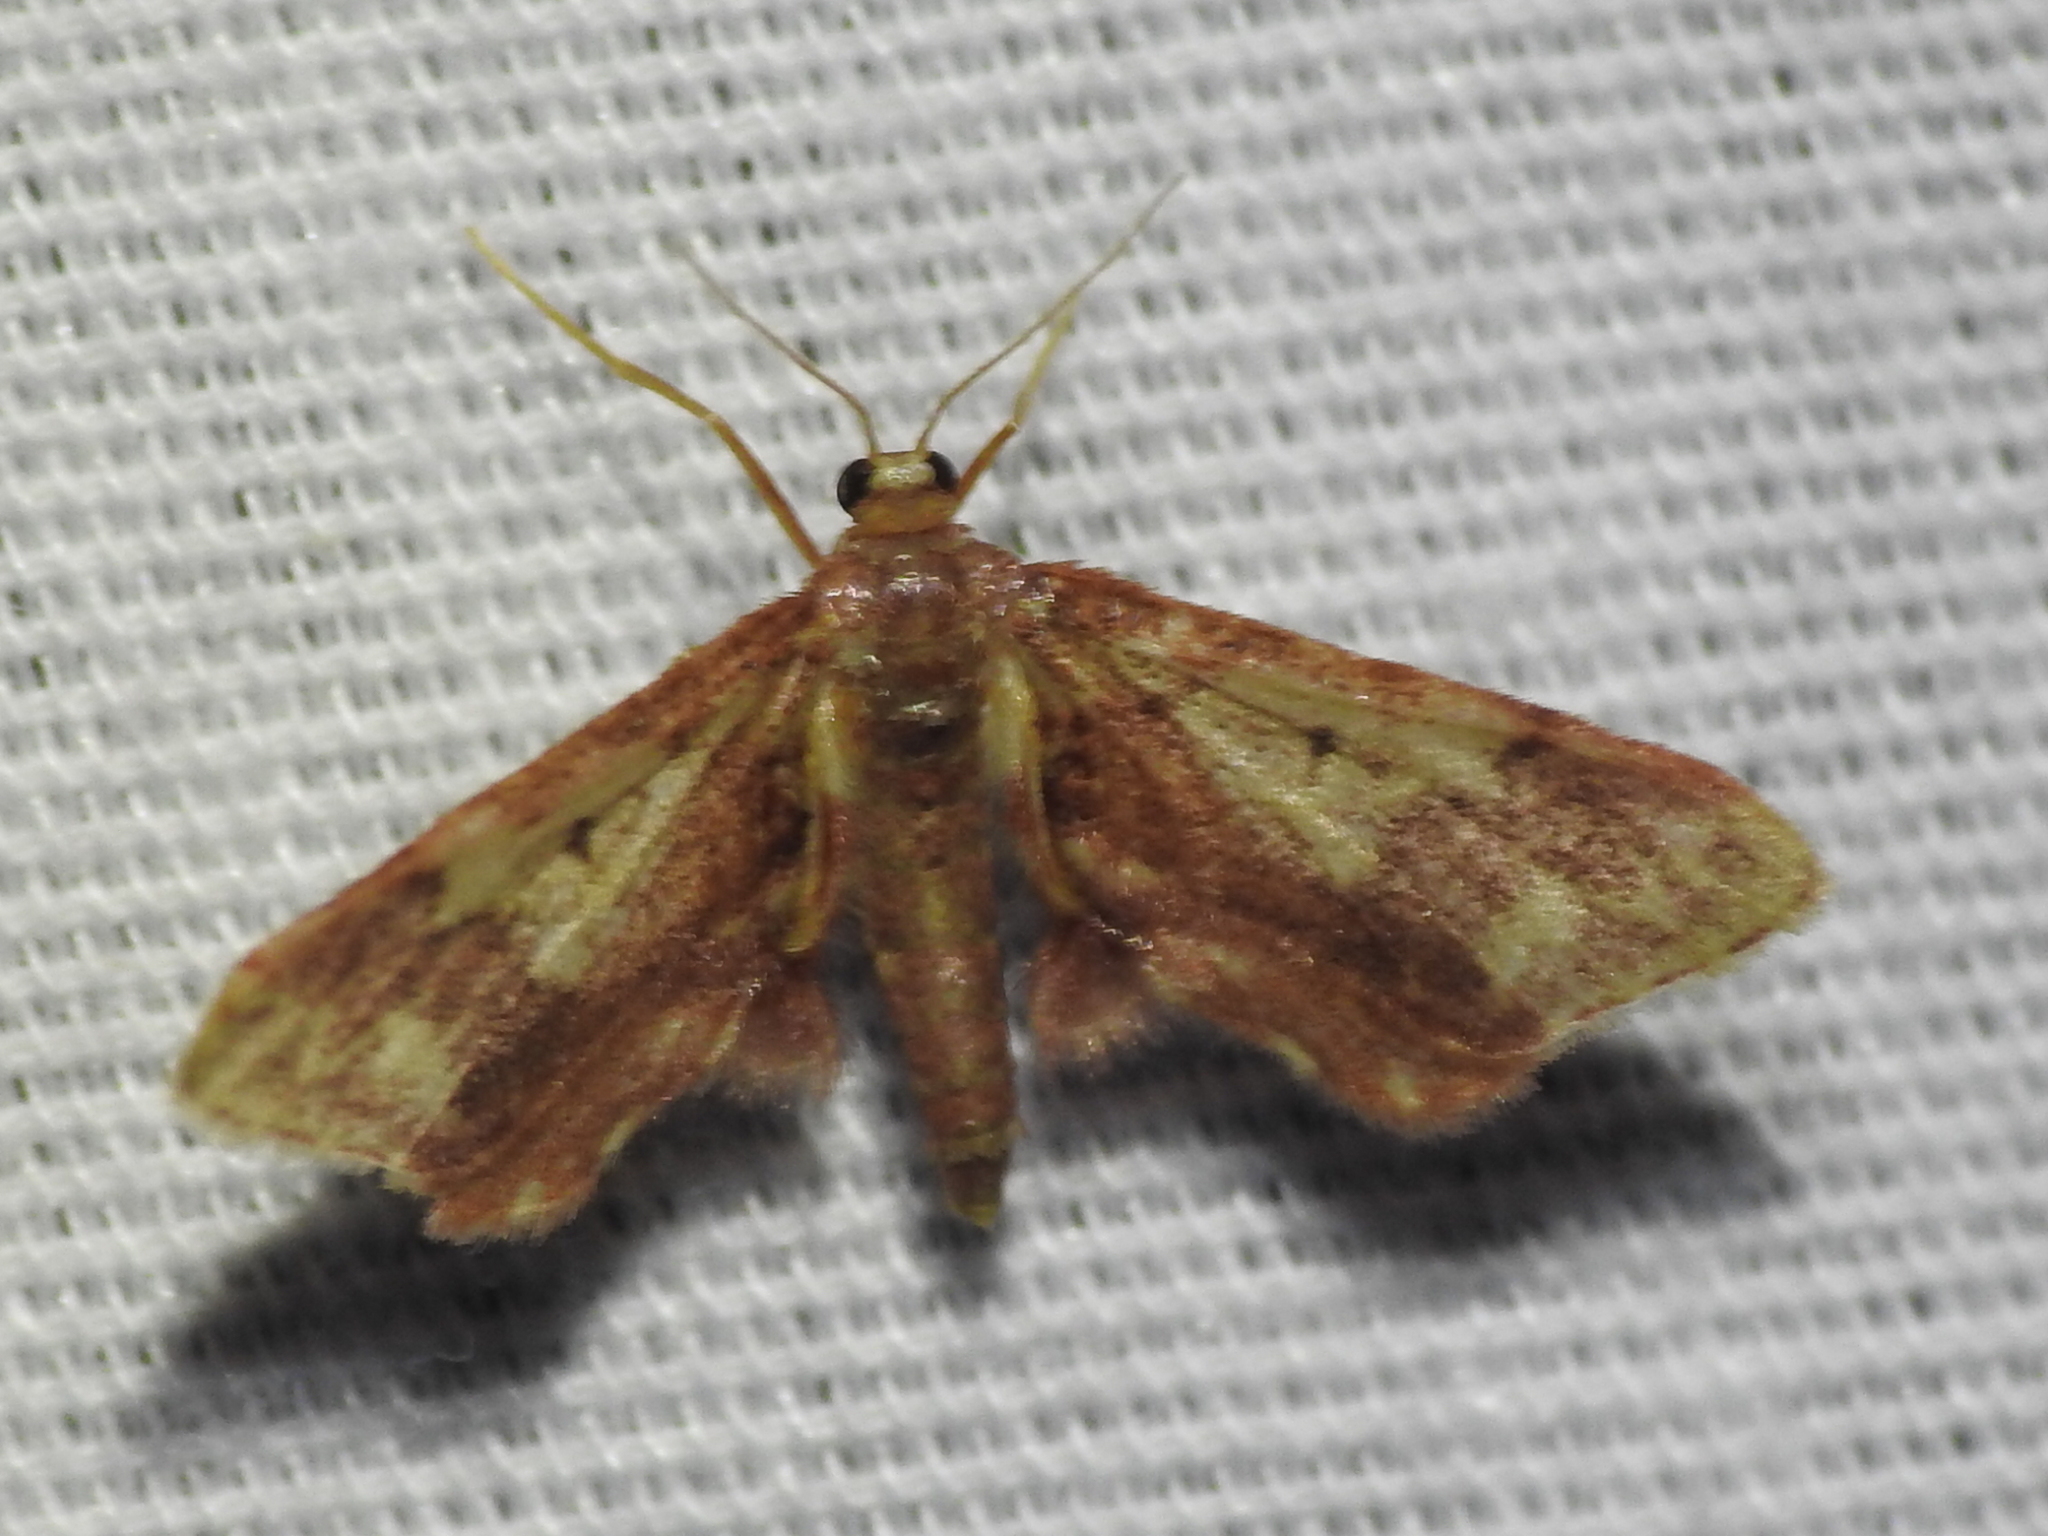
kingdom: Animalia
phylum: Arthropoda
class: Insecta
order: Lepidoptera
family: Geometridae
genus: Idaea
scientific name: Idaea furciferata
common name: Notch-winged wave
